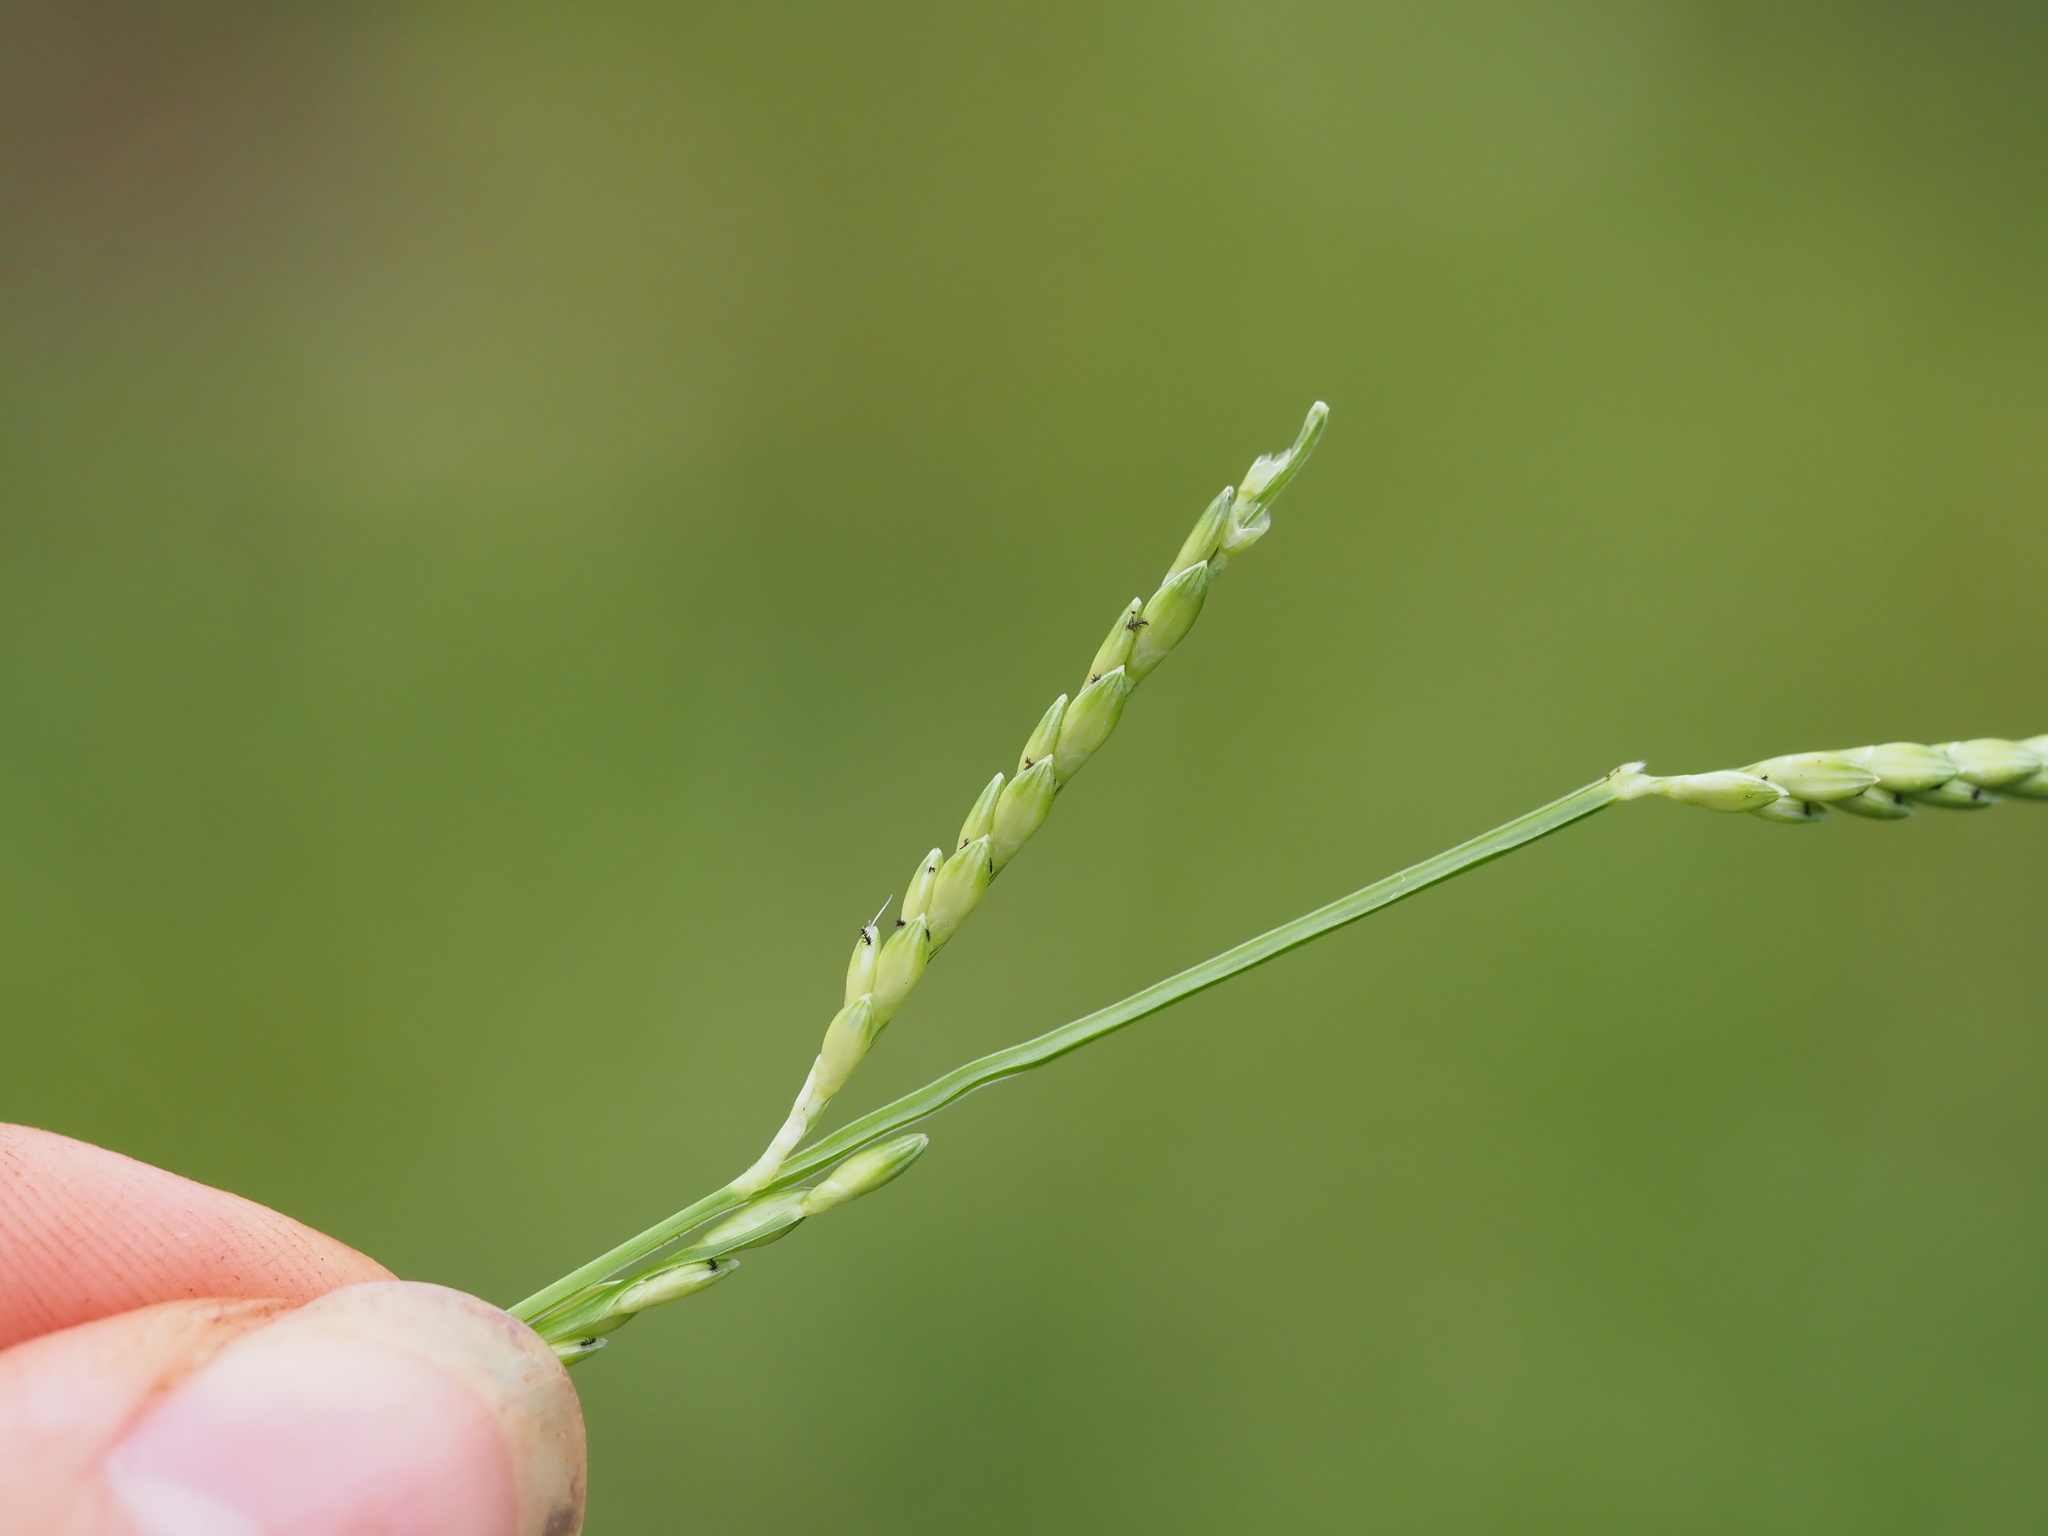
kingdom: Plantae
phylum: Tracheophyta
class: Liliopsida
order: Poales
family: Poaceae
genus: Urochloa
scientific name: Urochloa plantaginea
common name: Plantain signalgrass
